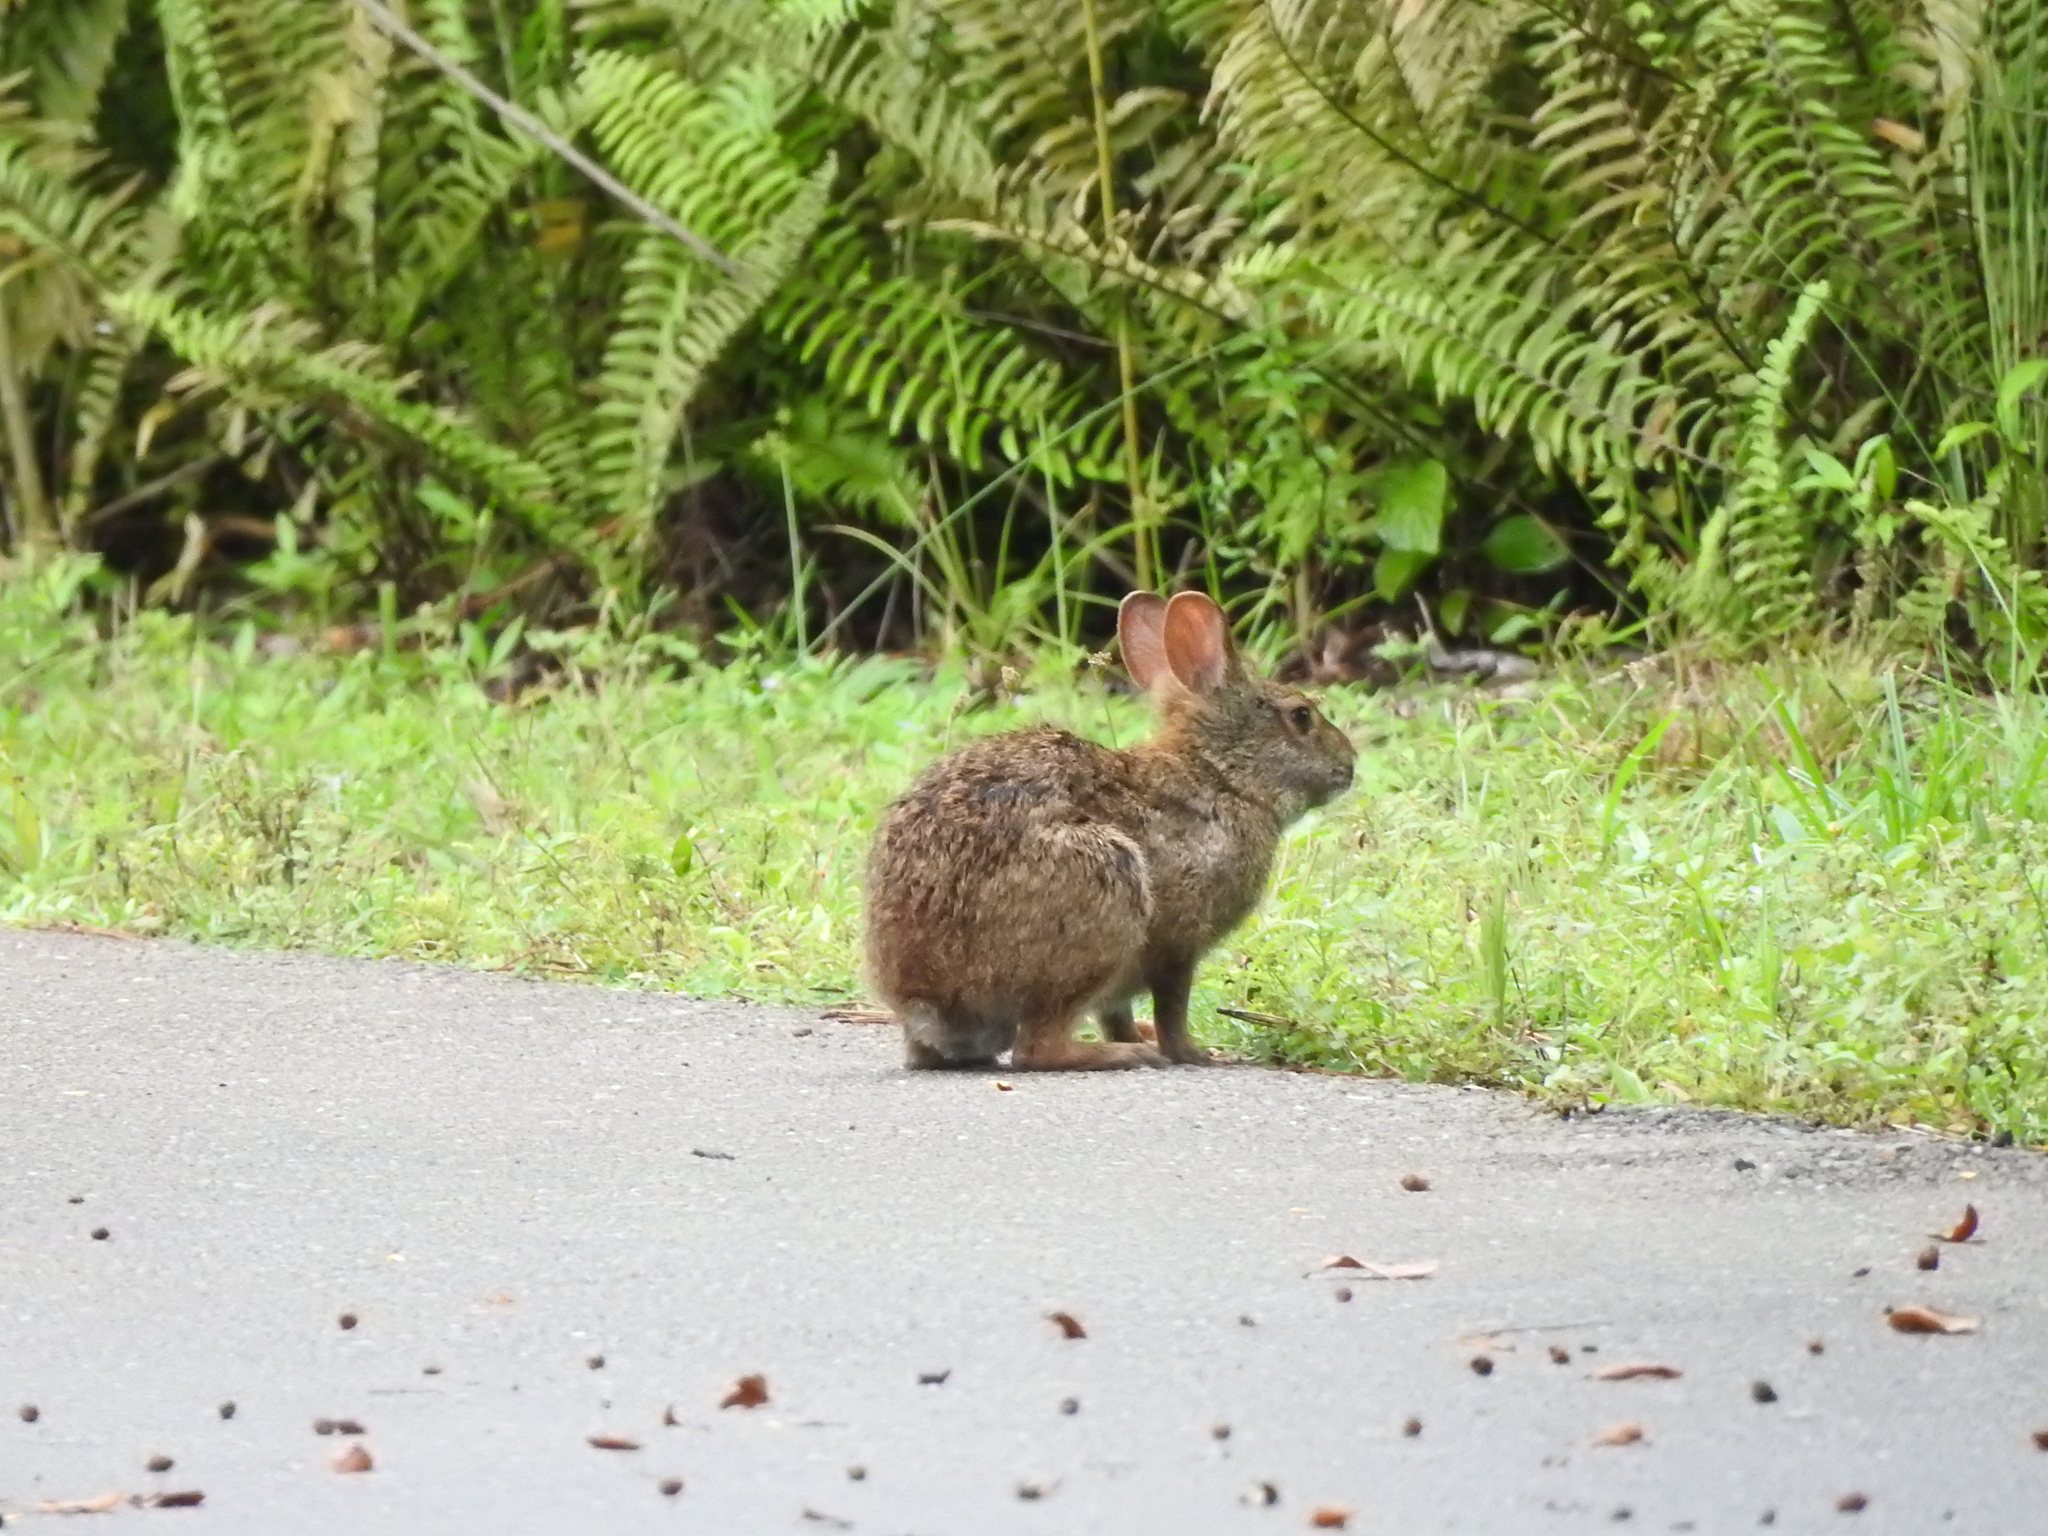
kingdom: Animalia
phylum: Chordata
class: Mammalia
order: Lagomorpha
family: Leporidae
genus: Sylvilagus
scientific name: Sylvilagus floridanus
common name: Eastern cottontail
